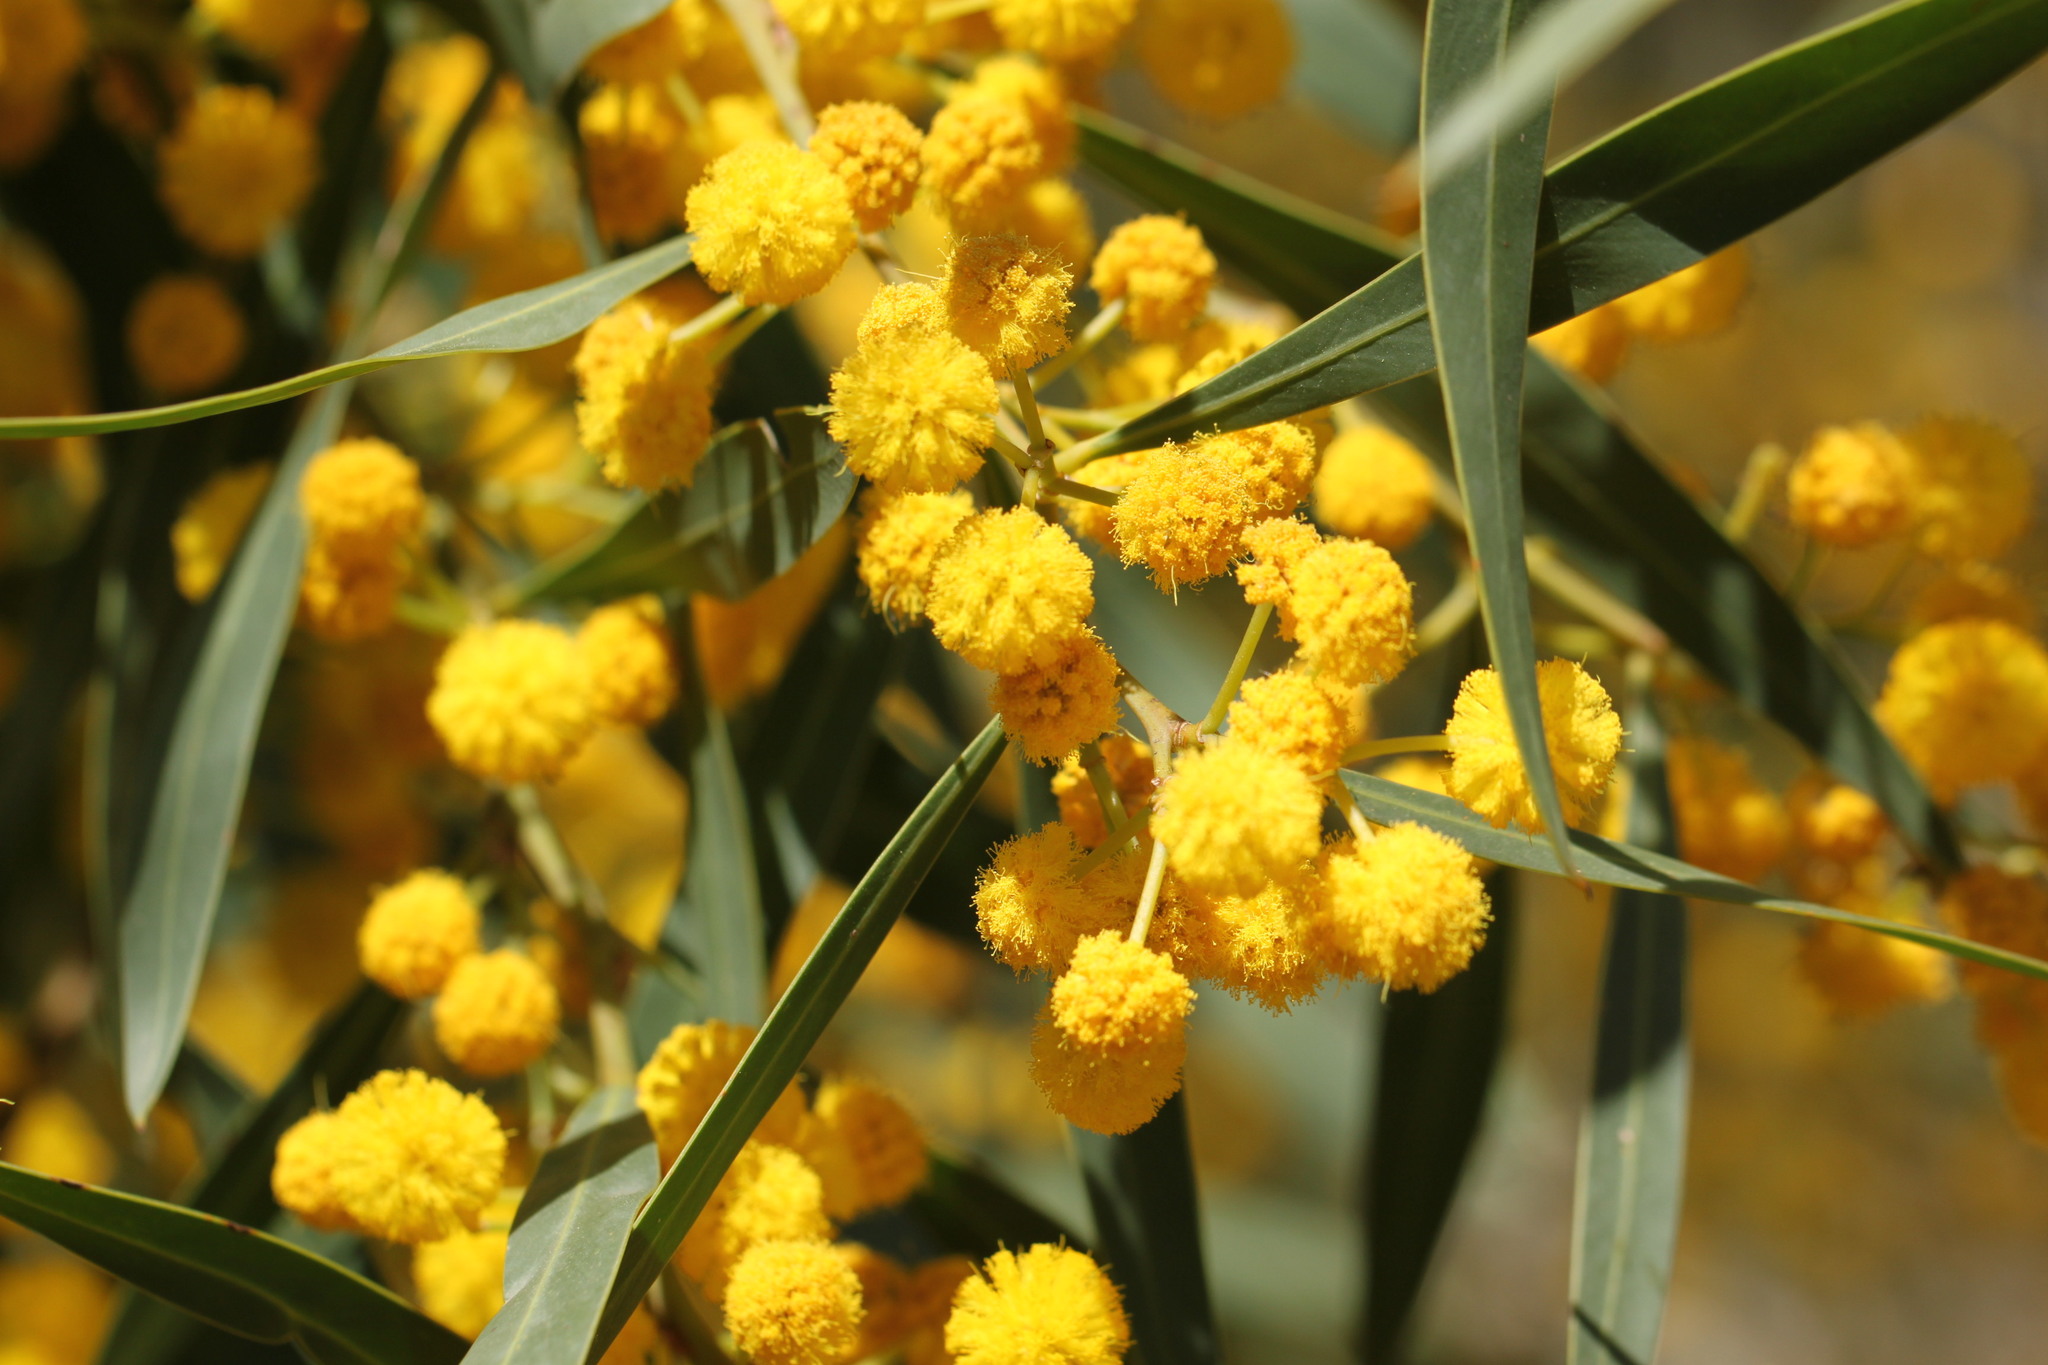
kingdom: Plantae
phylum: Tracheophyta
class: Magnoliopsida
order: Fabales
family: Fabaceae
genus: Acacia
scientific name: Acacia saligna
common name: Orange wattle
